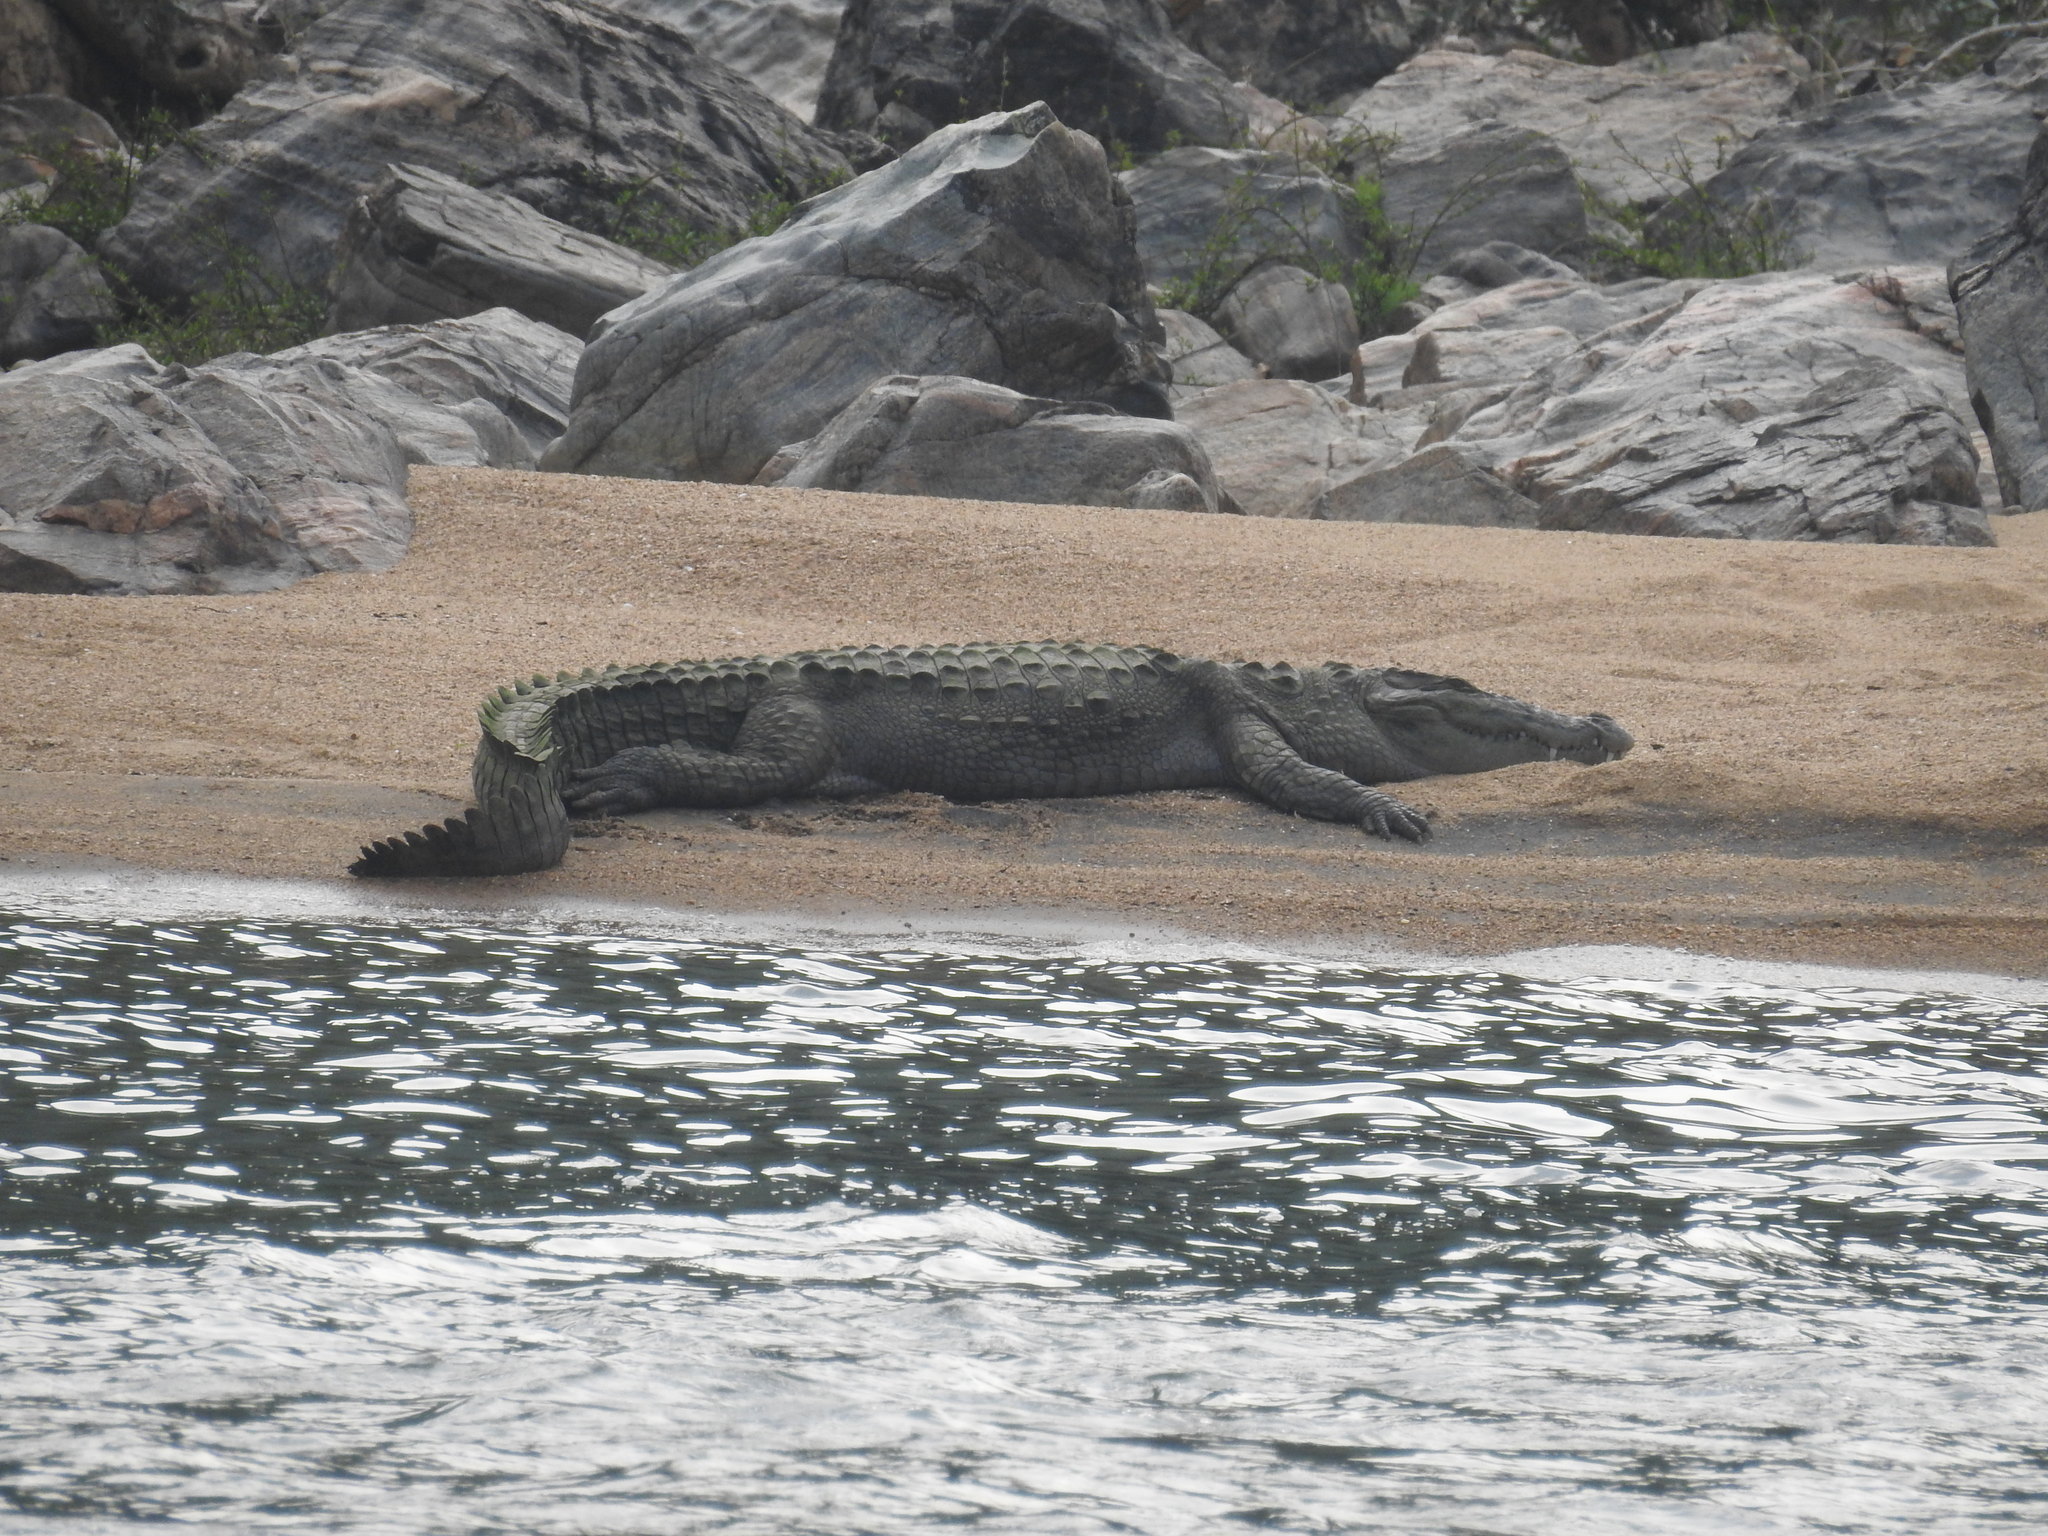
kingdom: Animalia
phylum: Chordata
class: Crocodylia
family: Crocodylidae
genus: Crocodylus
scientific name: Crocodylus palustris
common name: Mugger crocodile
